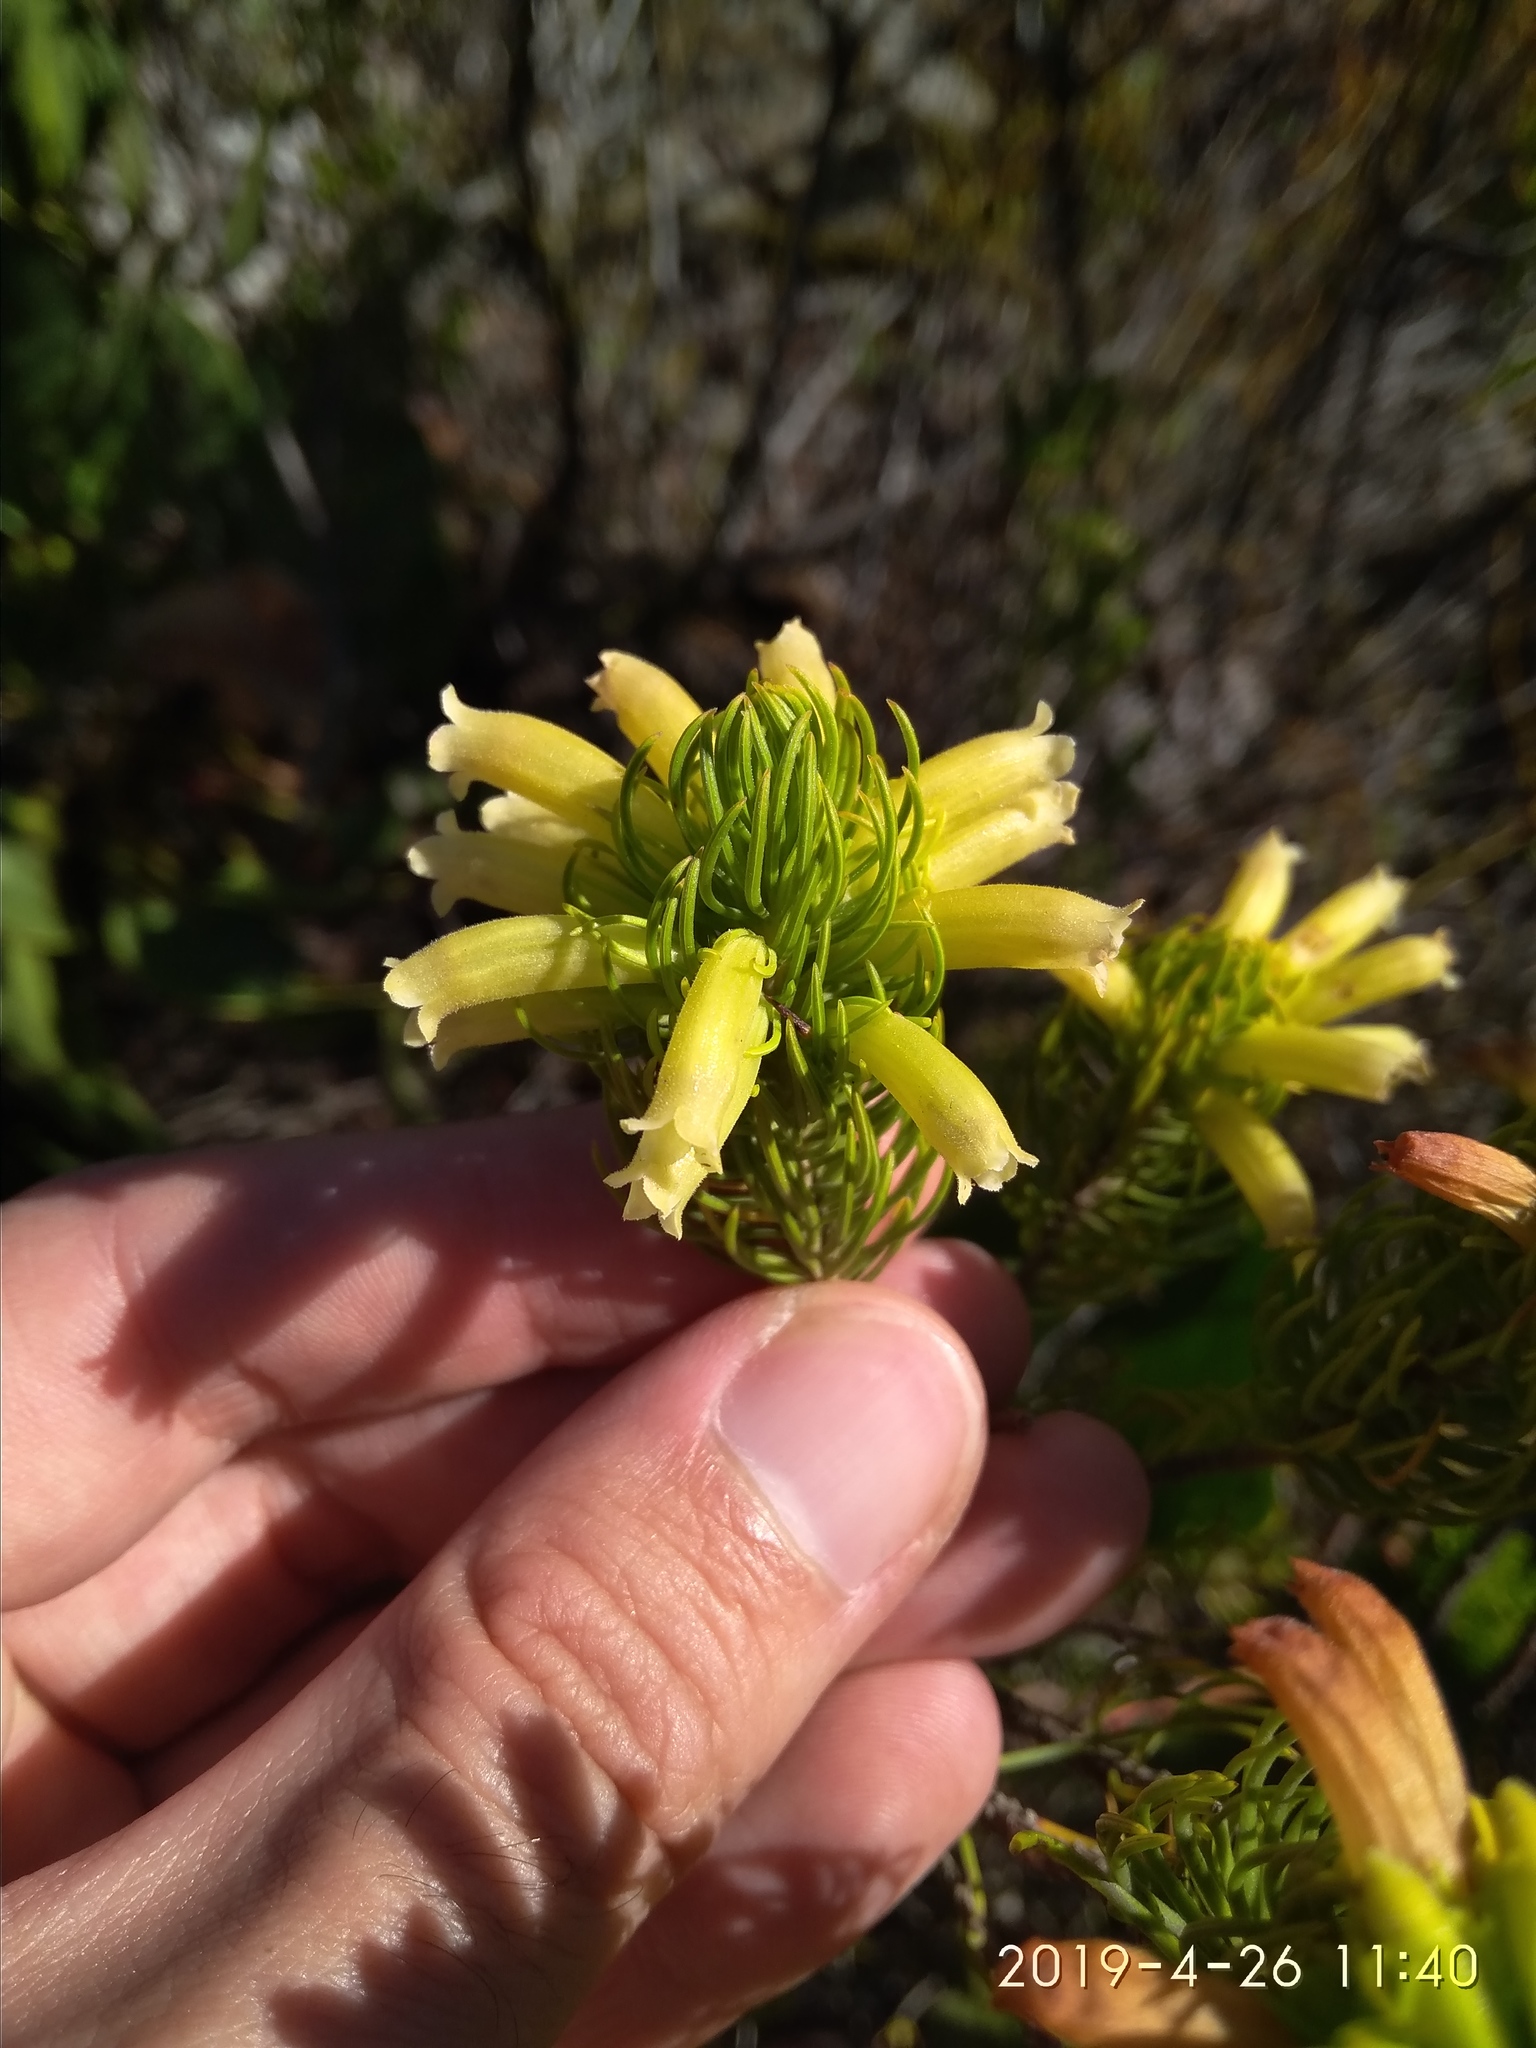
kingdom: Plantae
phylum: Tracheophyta
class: Magnoliopsida
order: Ericales
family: Ericaceae
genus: Erica
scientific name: Erica viscaria
